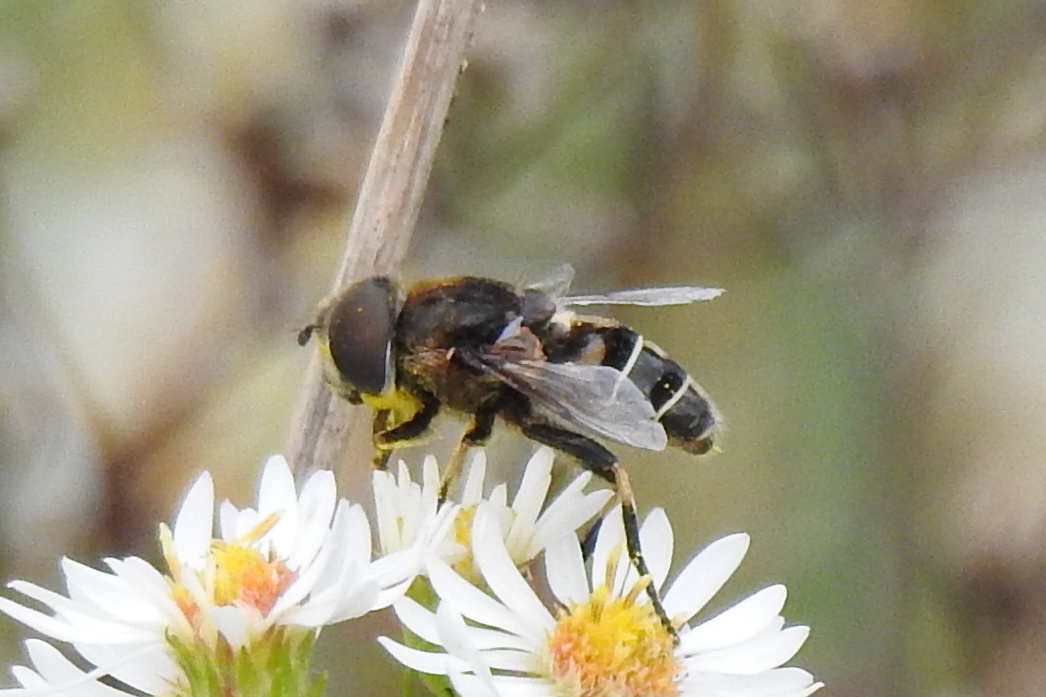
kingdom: Animalia
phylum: Arthropoda
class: Insecta
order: Diptera
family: Syrphidae
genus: Eristalis
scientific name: Eristalis dimidiata
